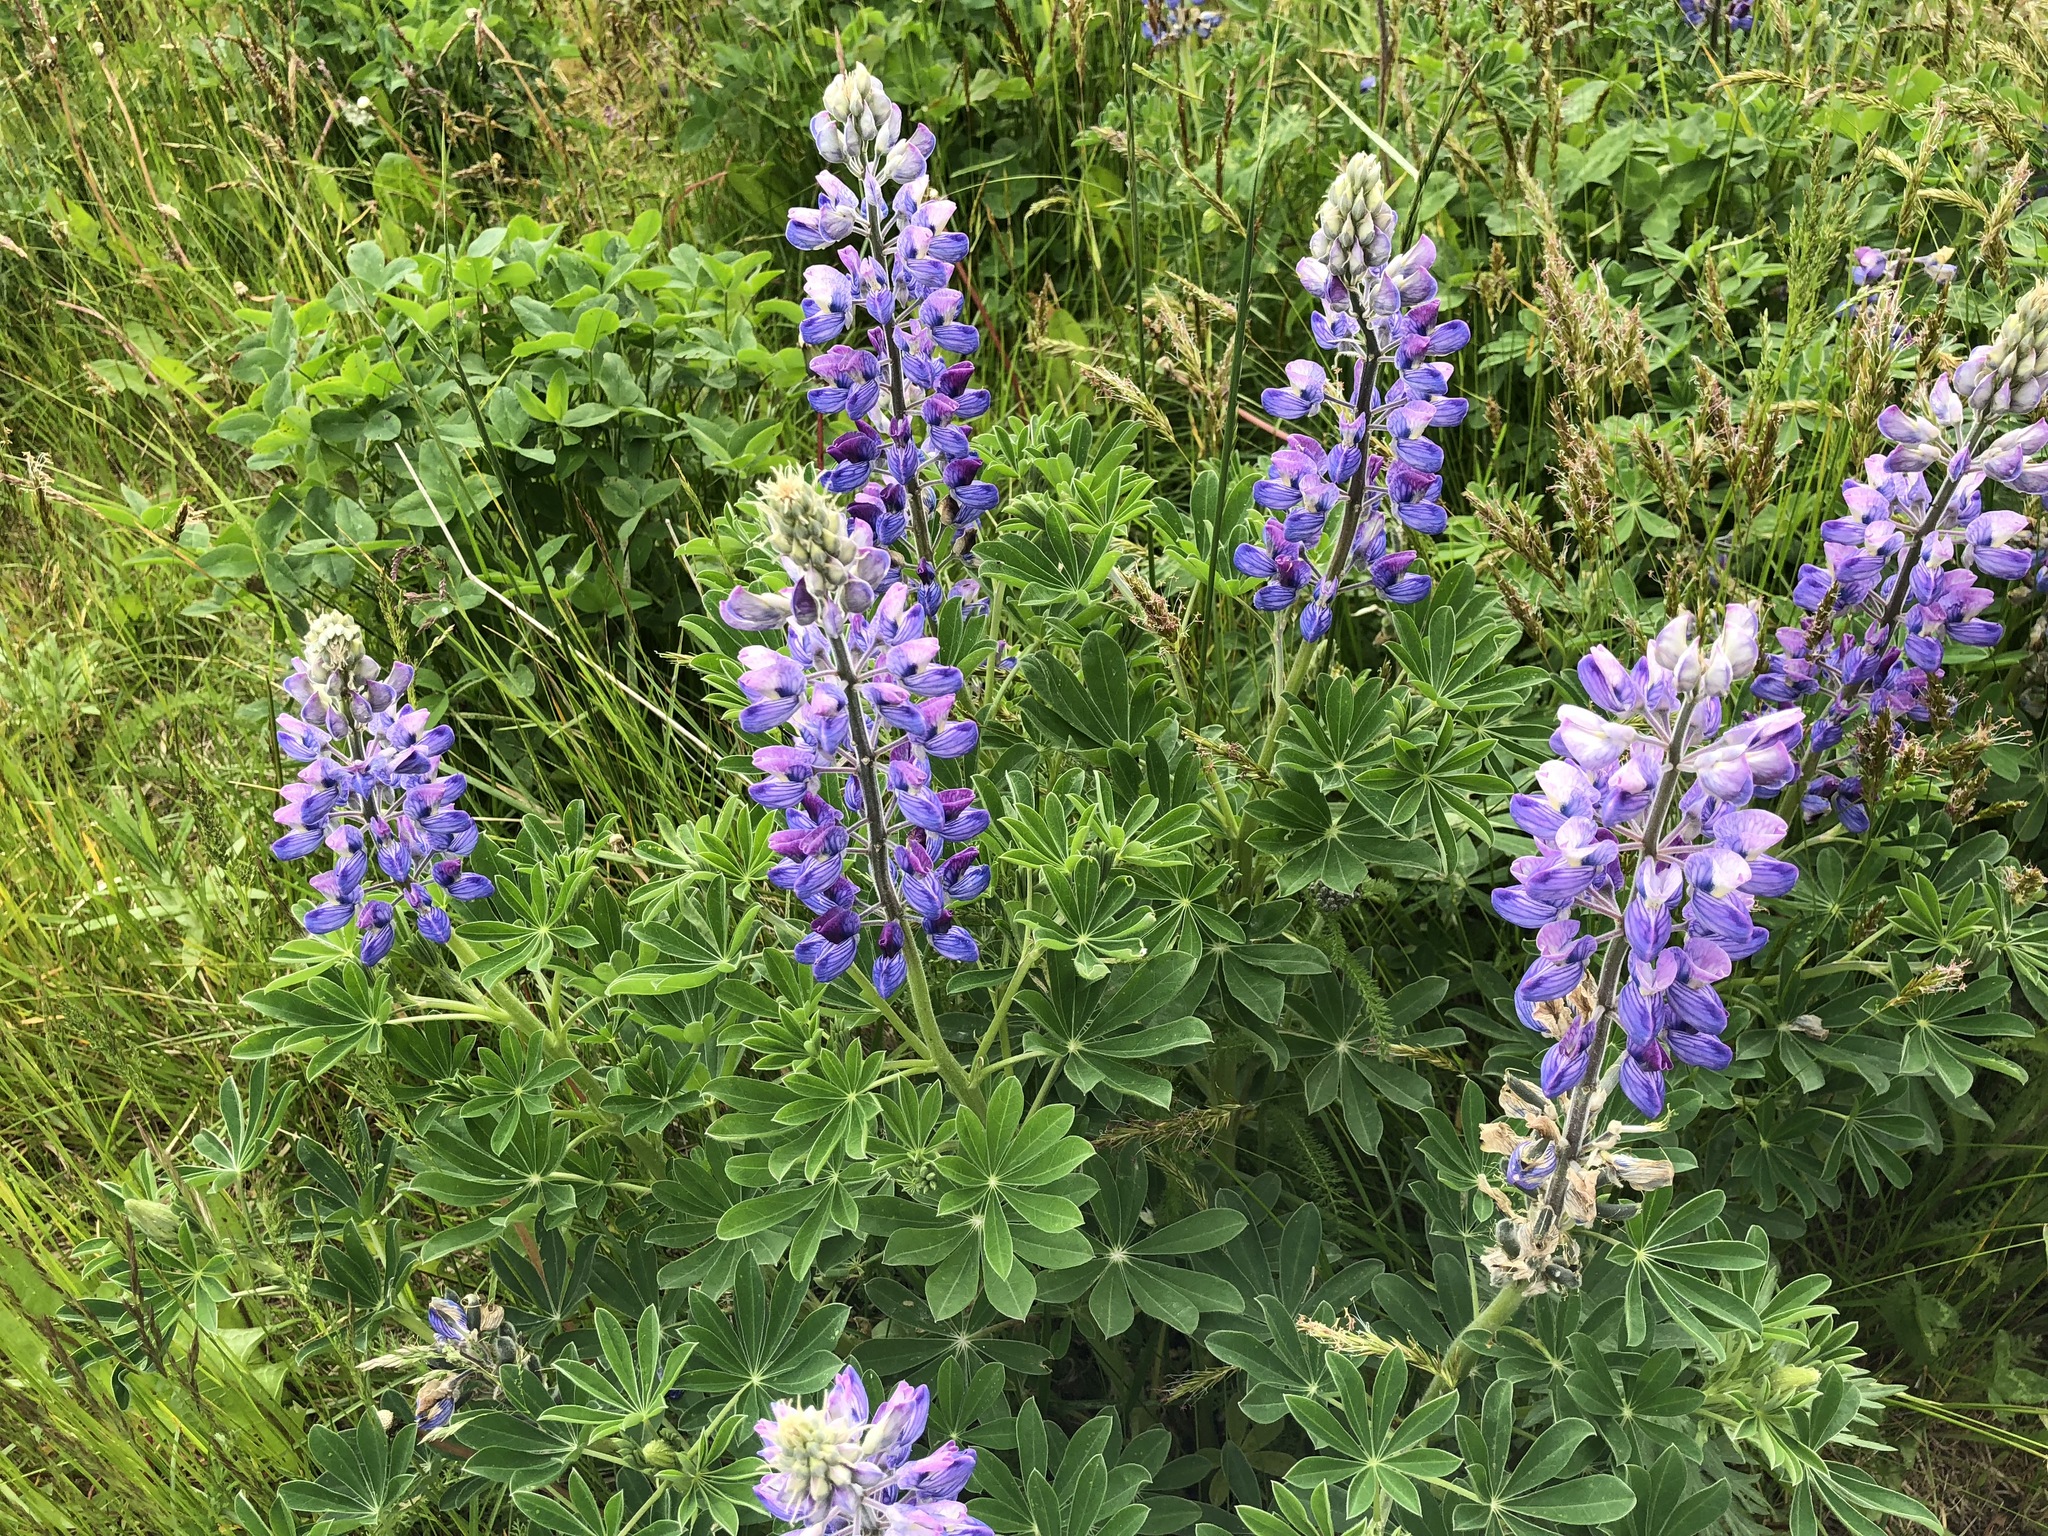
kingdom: Plantae
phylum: Tracheophyta
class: Magnoliopsida
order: Fabales
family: Fabaceae
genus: Lupinus
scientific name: Lupinus nootkatensis
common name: Nootka lupine
